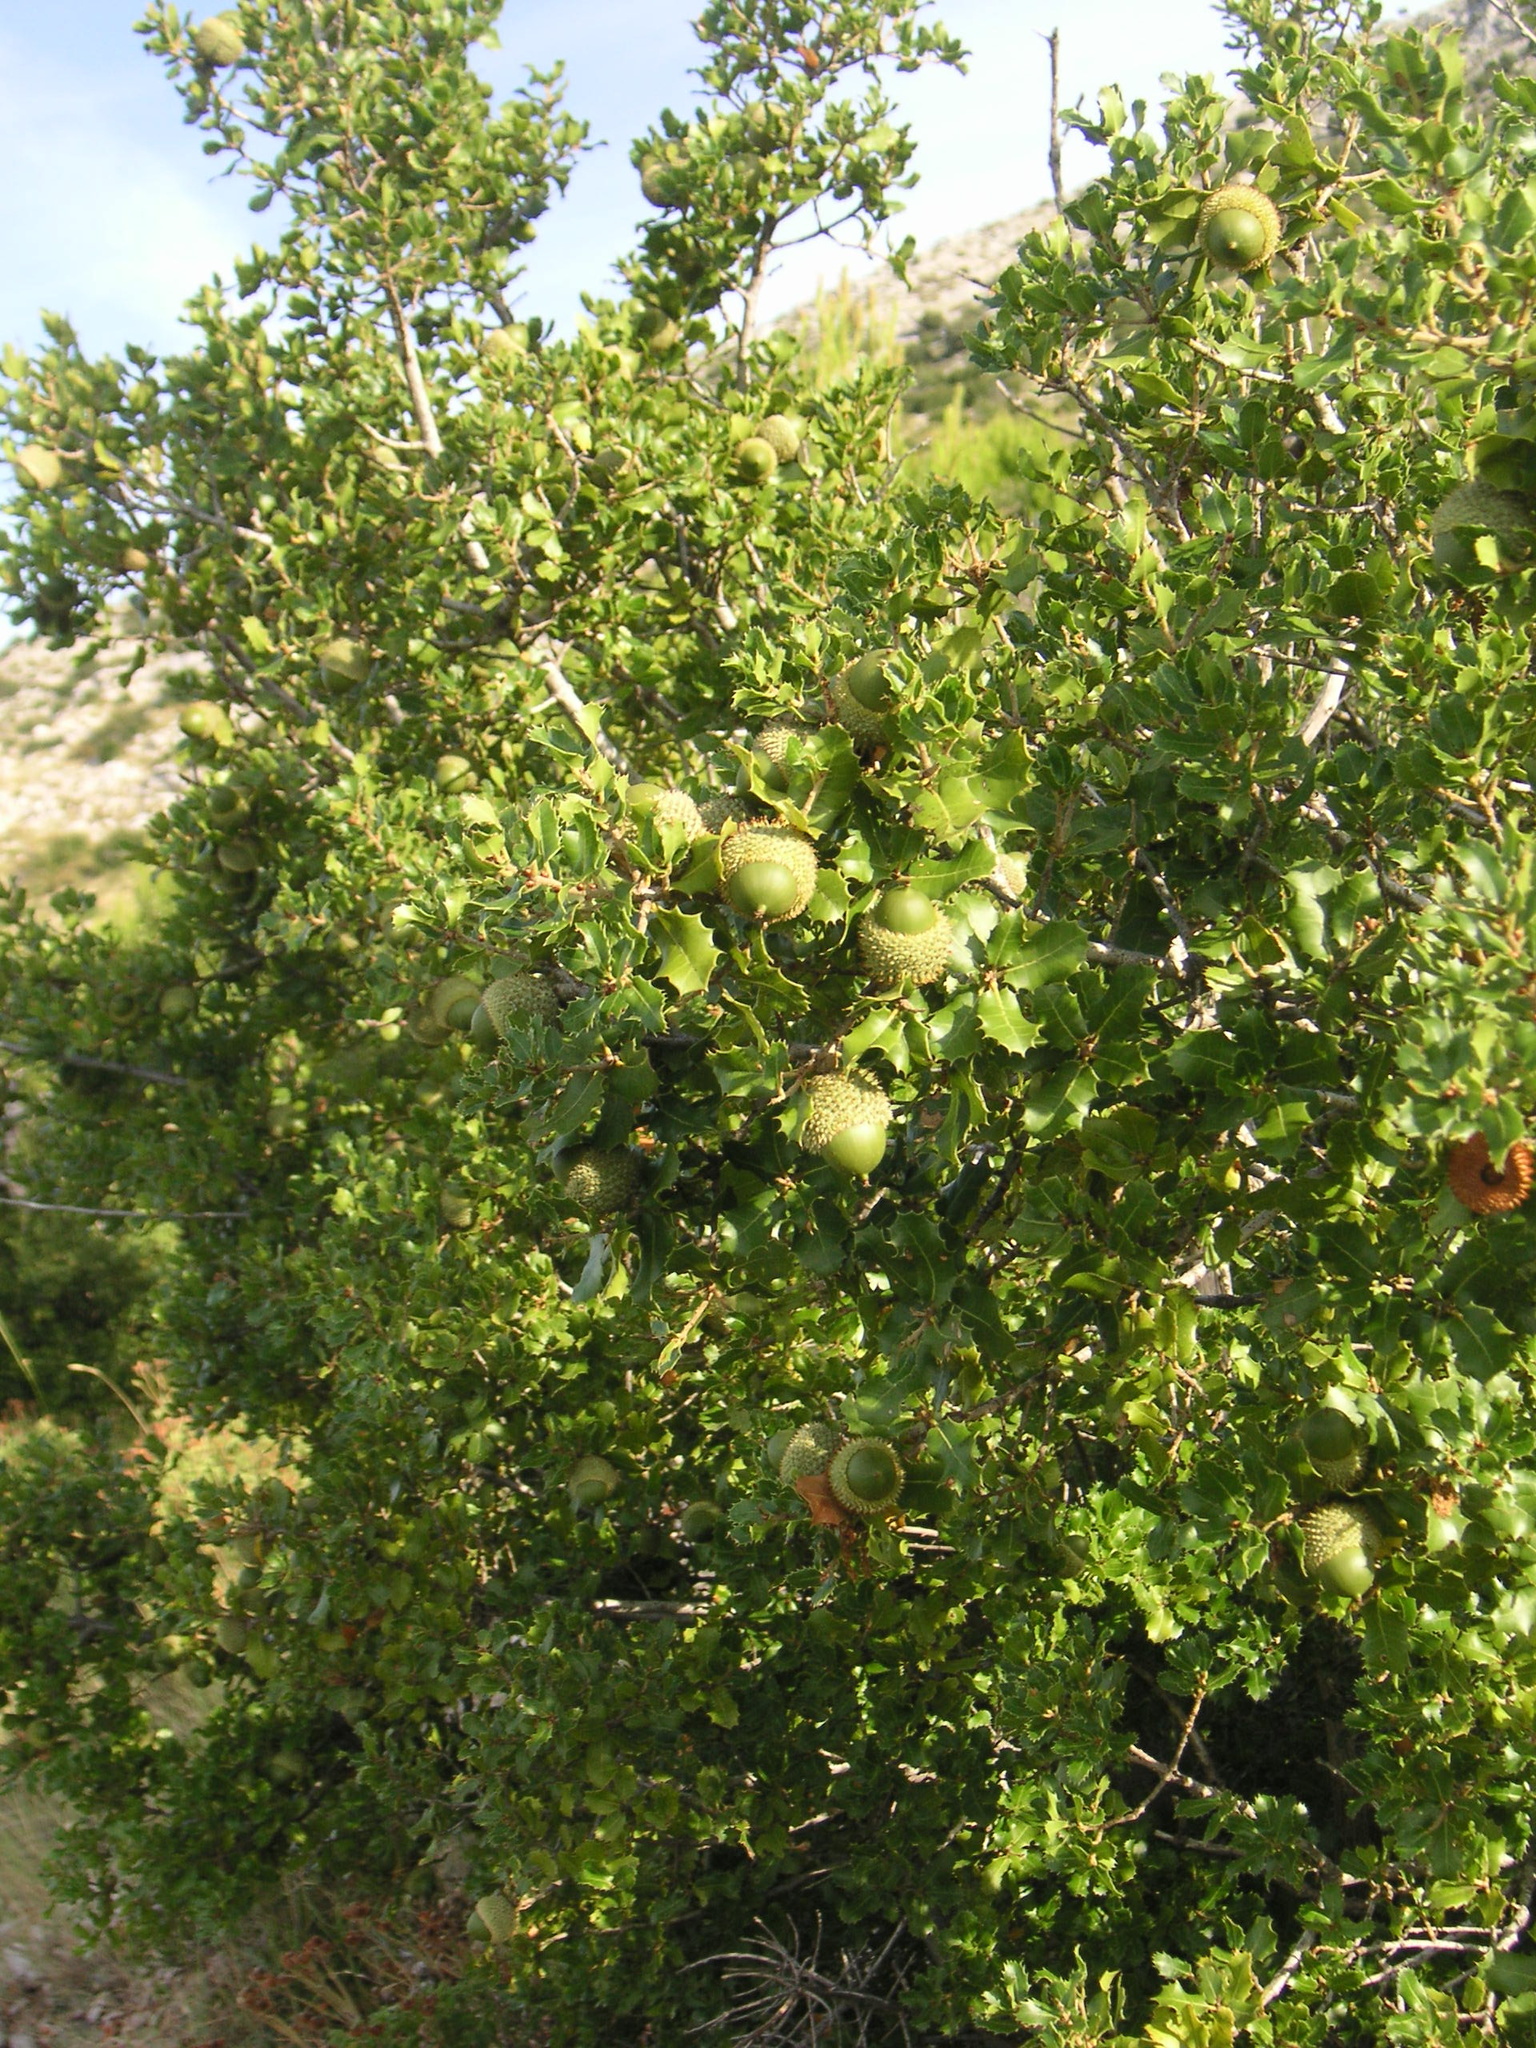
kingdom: Plantae
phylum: Tracheophyta
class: Magnoliopsida
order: Fagales
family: Fagaceae
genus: Quercus
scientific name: Quercus coccifera
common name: Kermes oak
